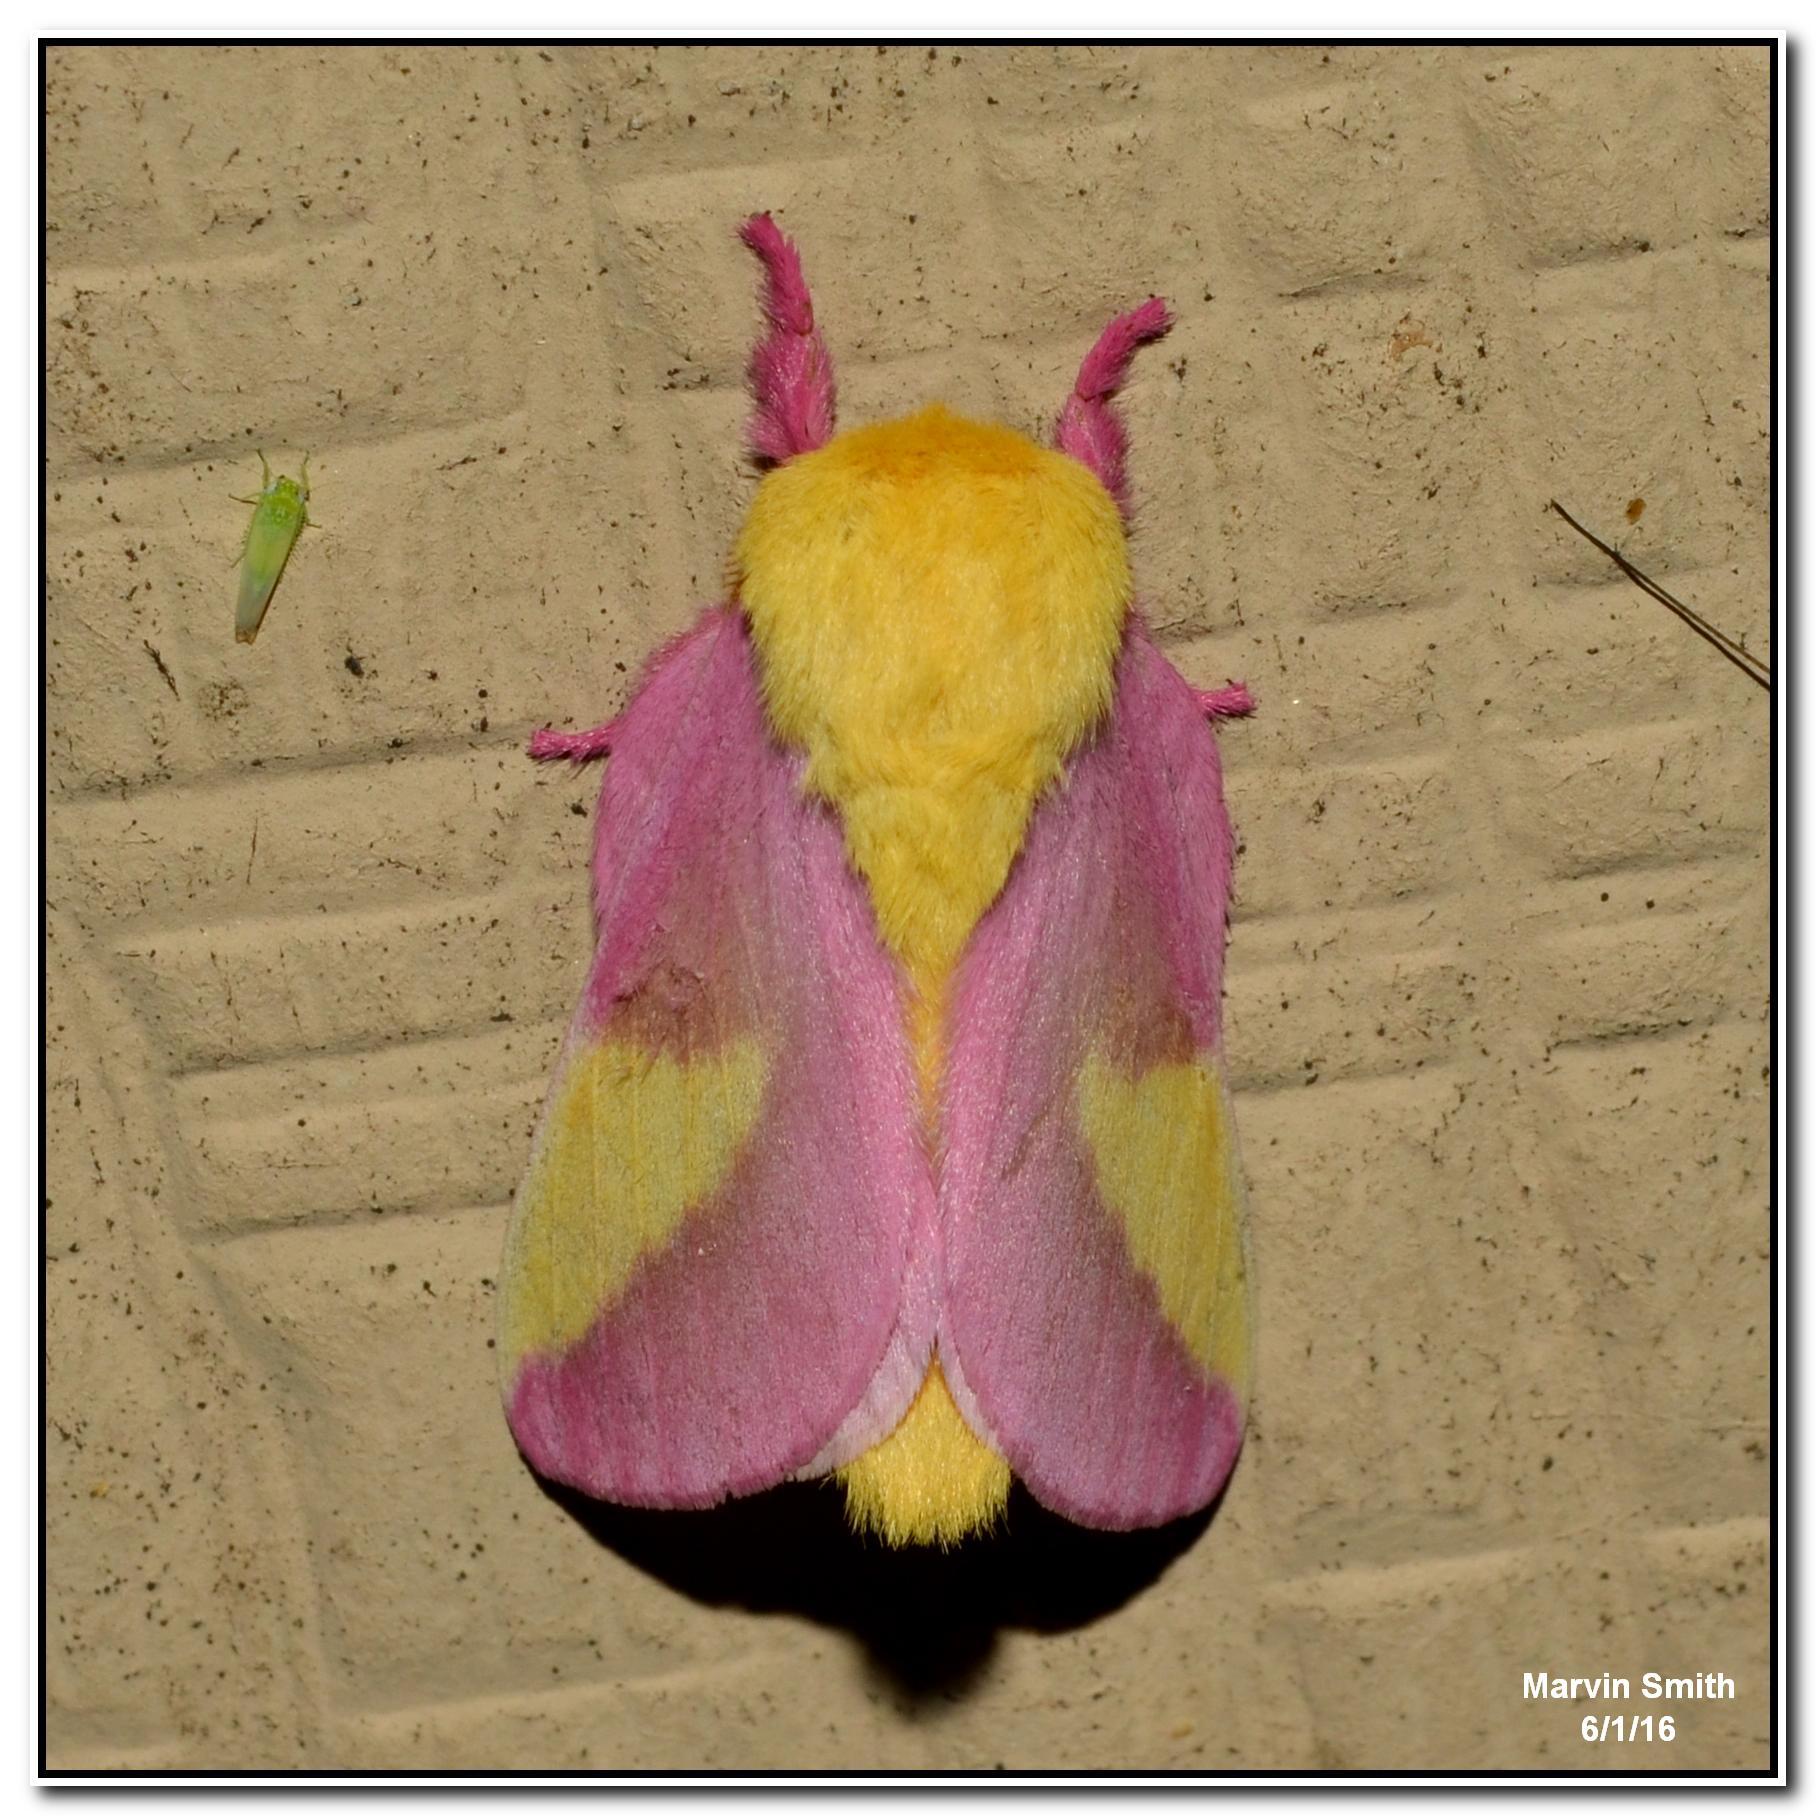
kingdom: Animalia
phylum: Arthropoda
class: Insecta
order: Lepidoptera
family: Saturniidae
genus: Dryocampa
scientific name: Dryocampa rubicunda
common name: Rosy maple moth
